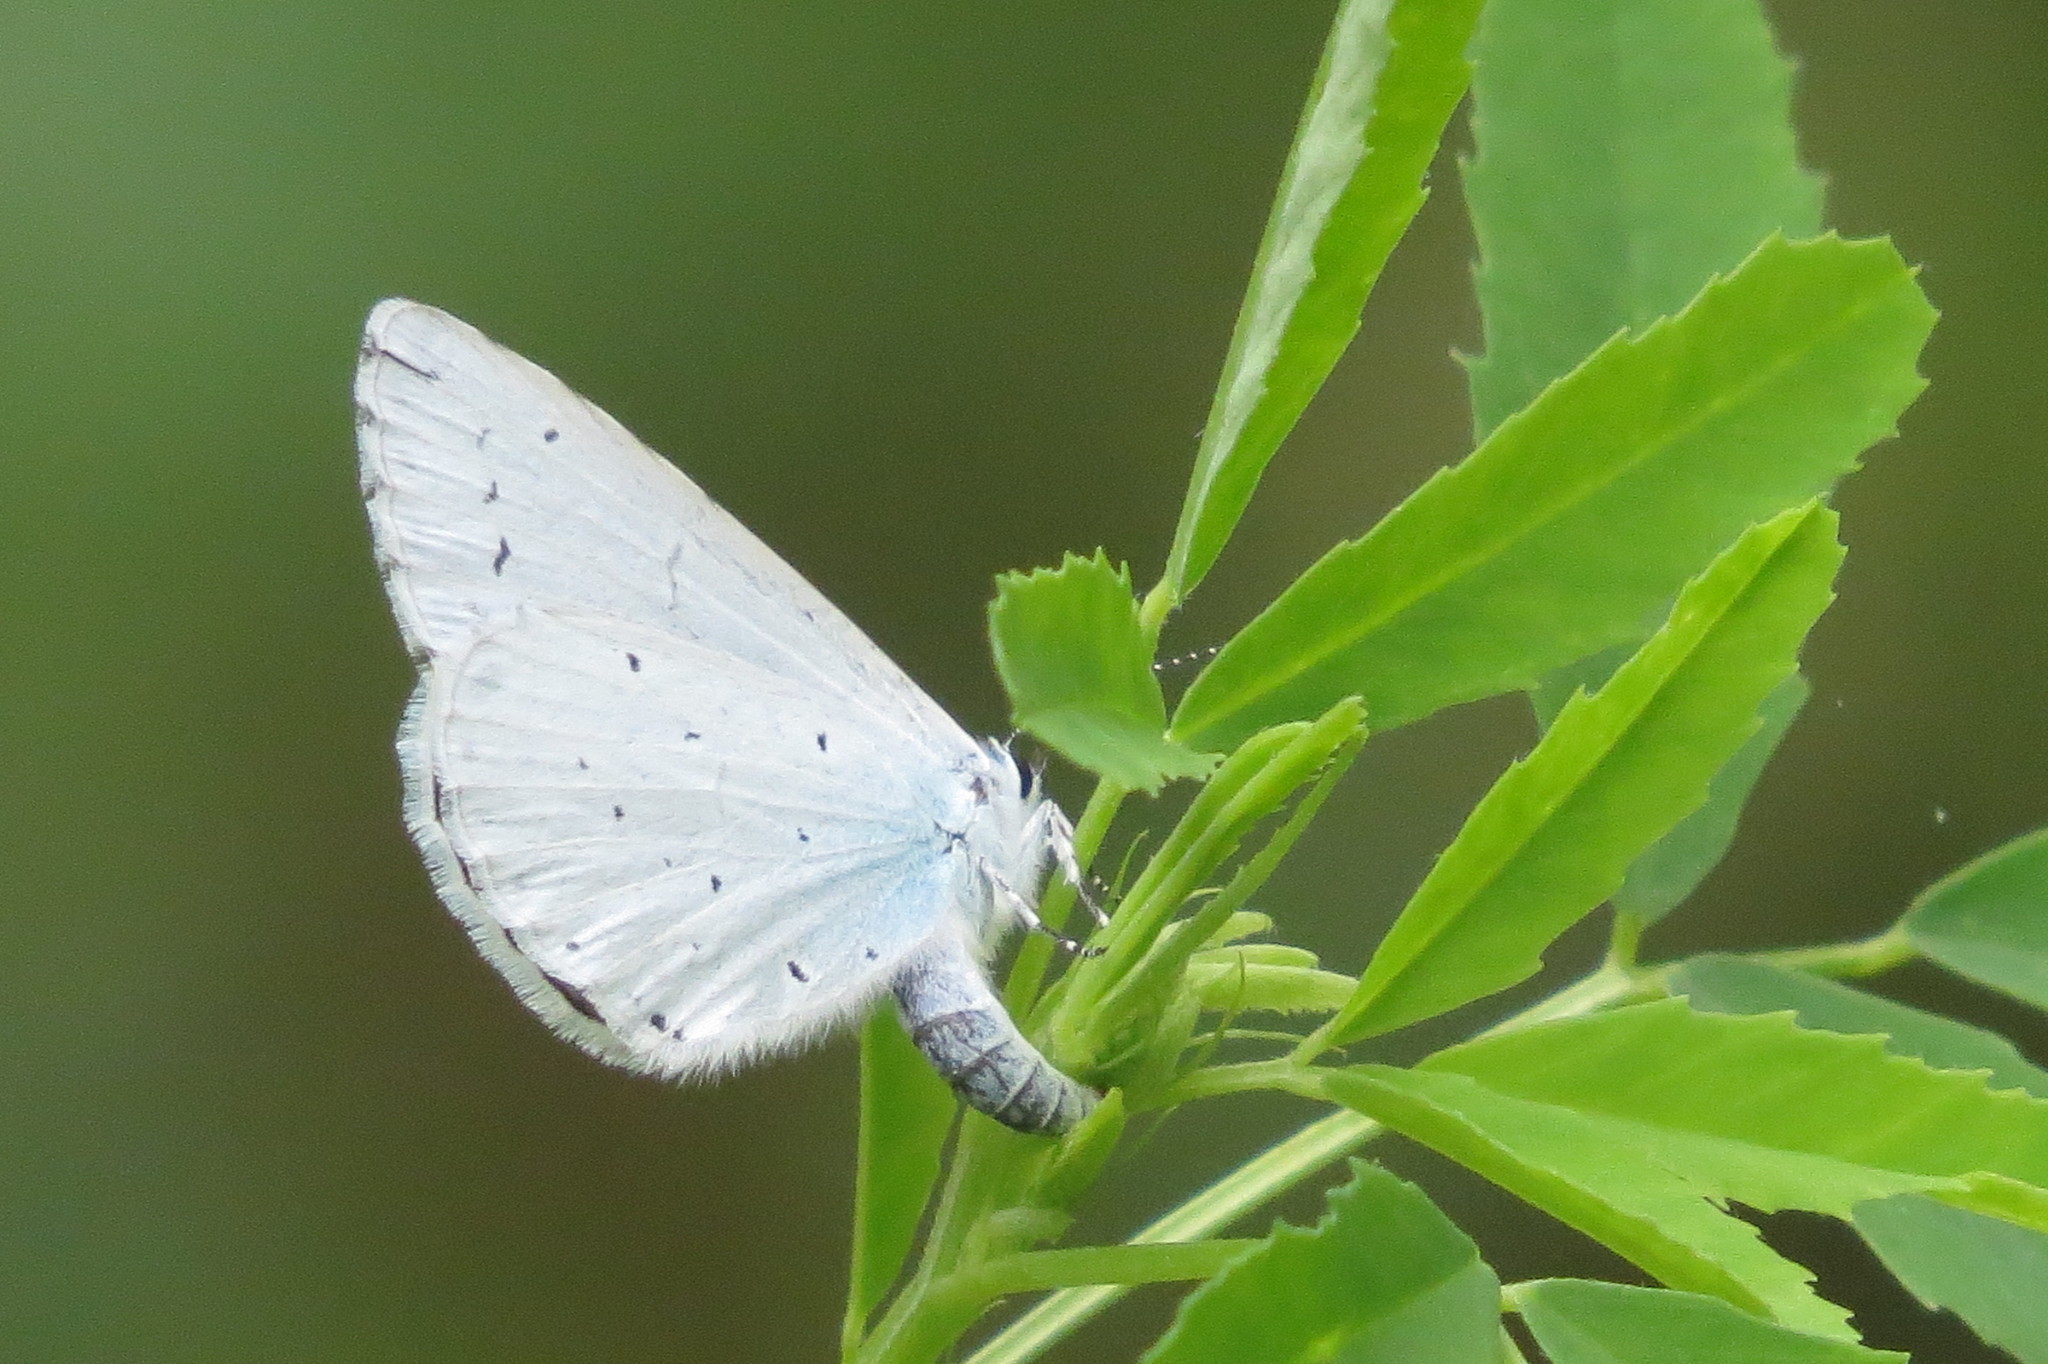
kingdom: Animalia
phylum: Arthropoda
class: Insecta
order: Lepidoptera
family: Lycaenidae
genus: Celastrina
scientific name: Celastrina argiolus
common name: Holly blue
